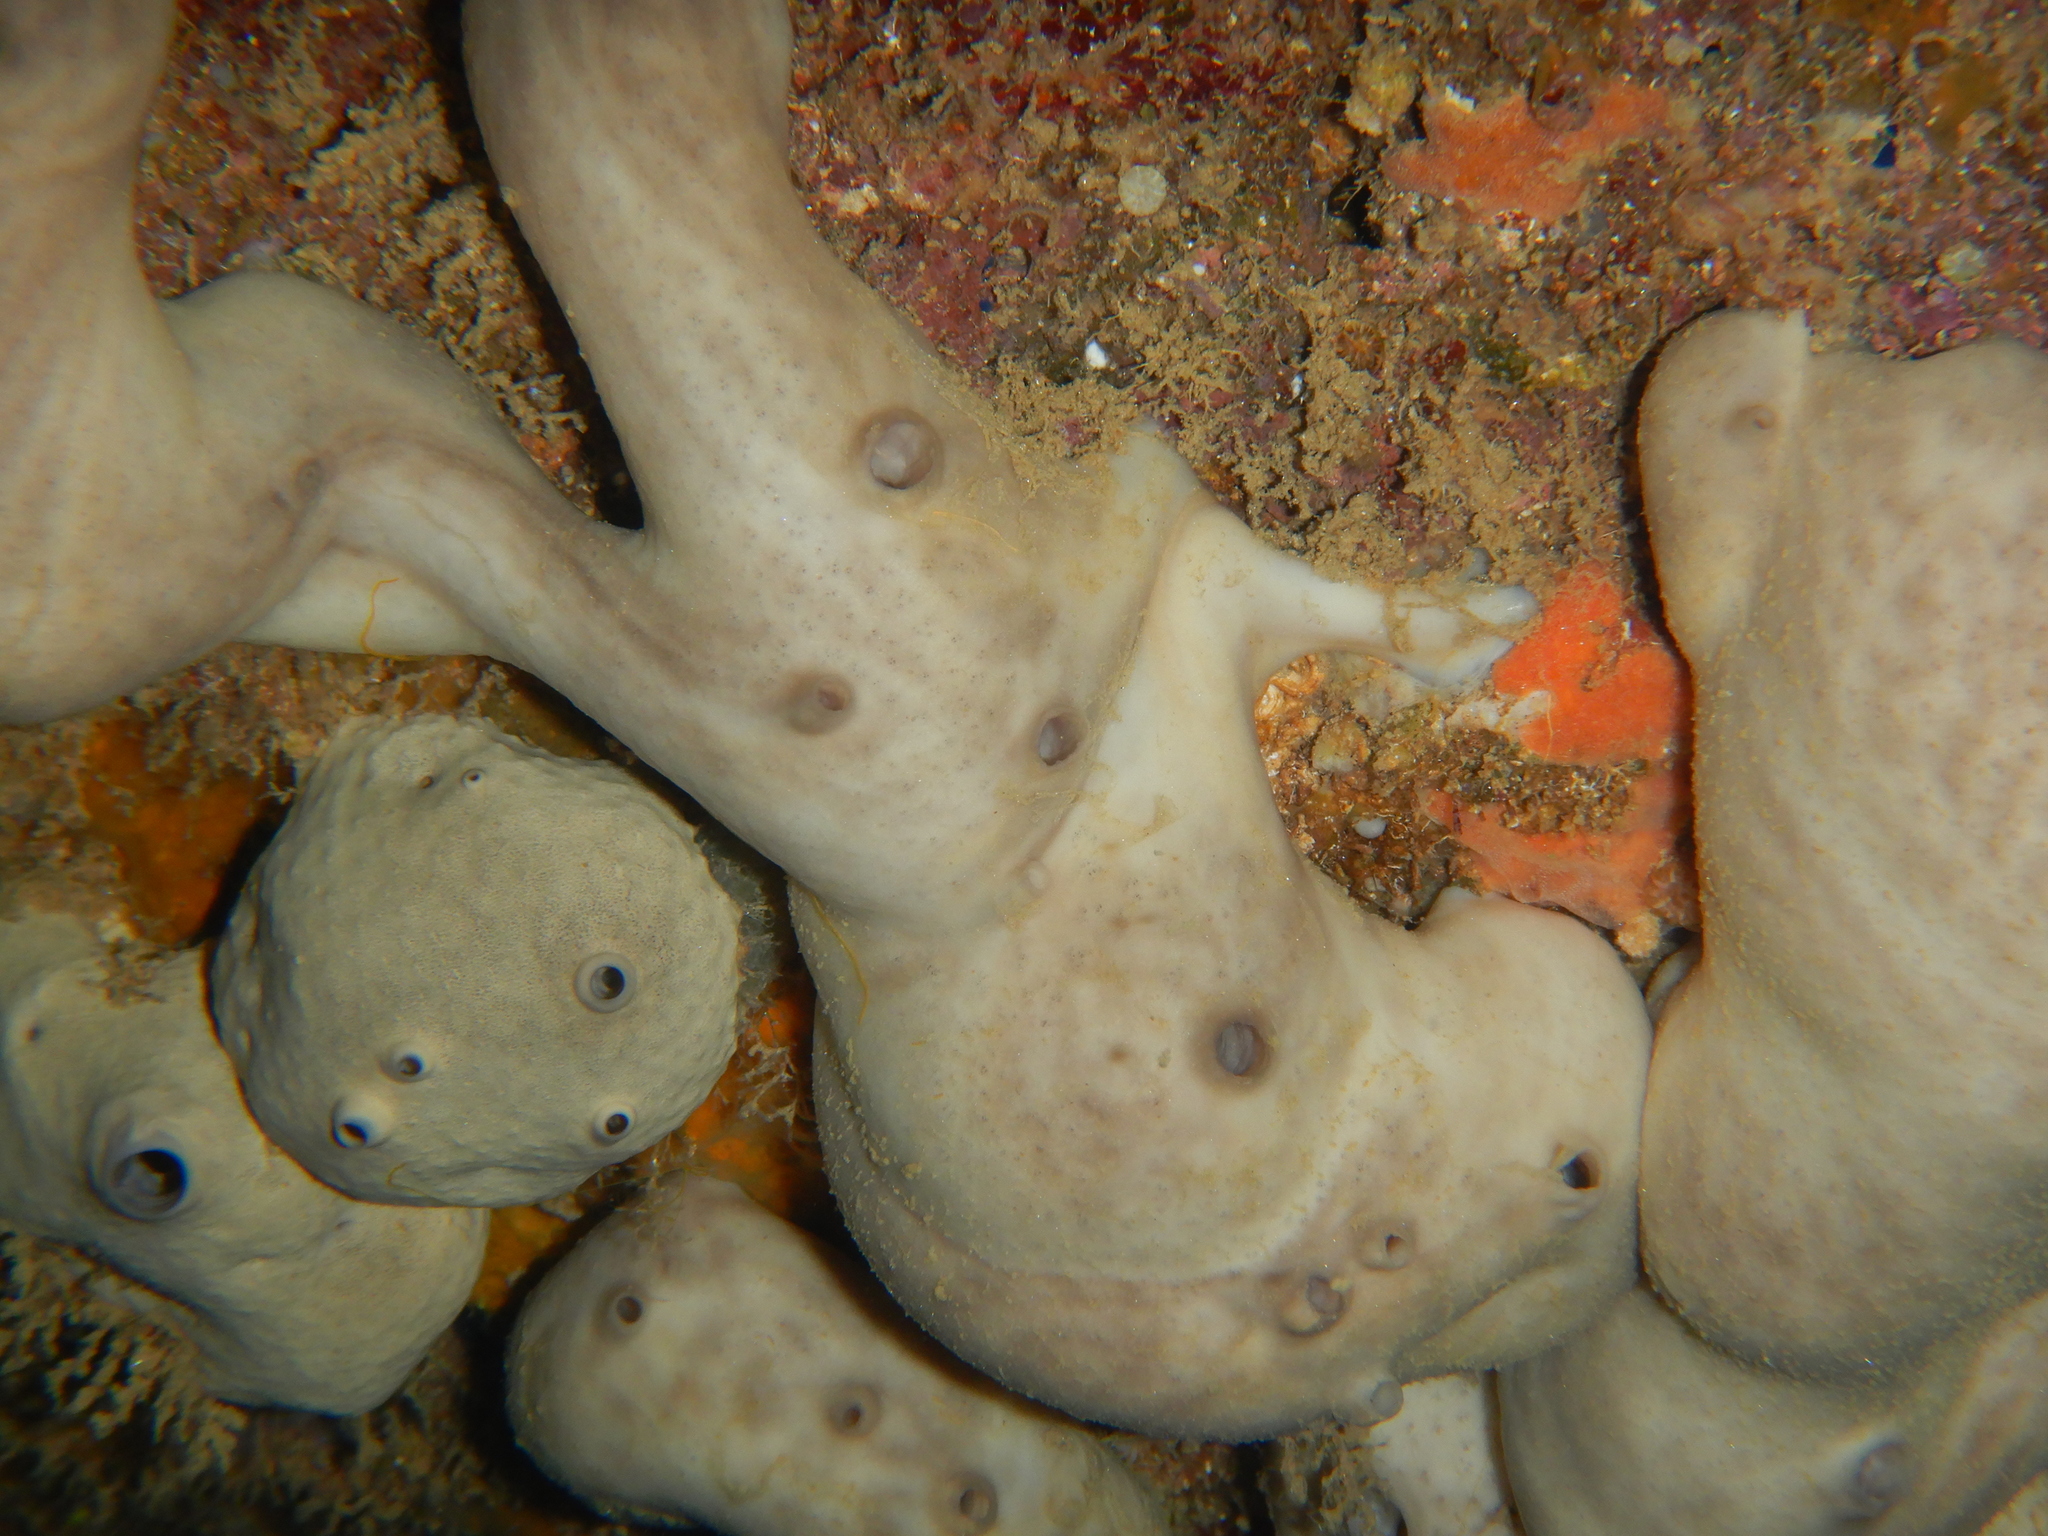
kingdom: Animalia
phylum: Porifera
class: Demospongiae
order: Chondrosiida
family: Chondrosiidae
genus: Chondrosia
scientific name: Chondrosia reniformis
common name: Chicken liver sponge
